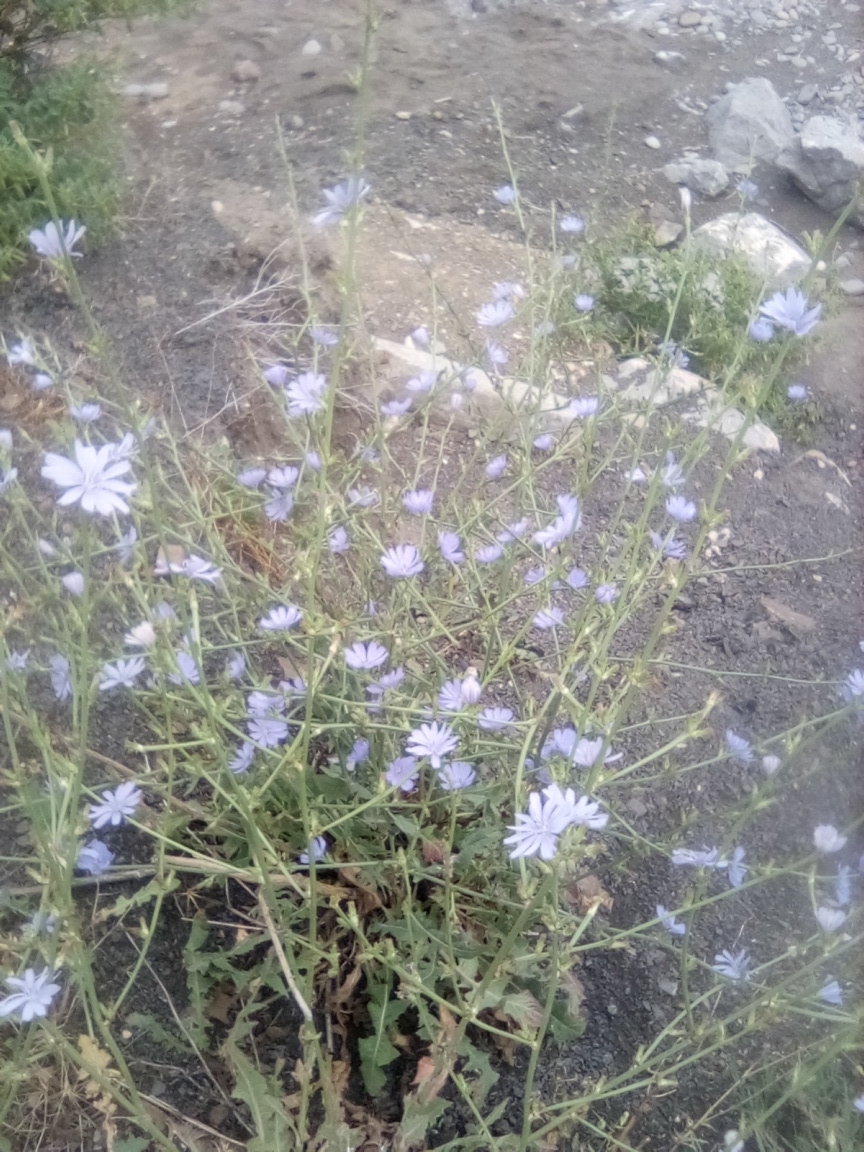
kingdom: Plantae
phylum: Tracheophyta
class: Magnoliopsida
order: Asterales
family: Asteraceae
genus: Cichorium
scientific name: Cichorium intybus
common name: Chicory
